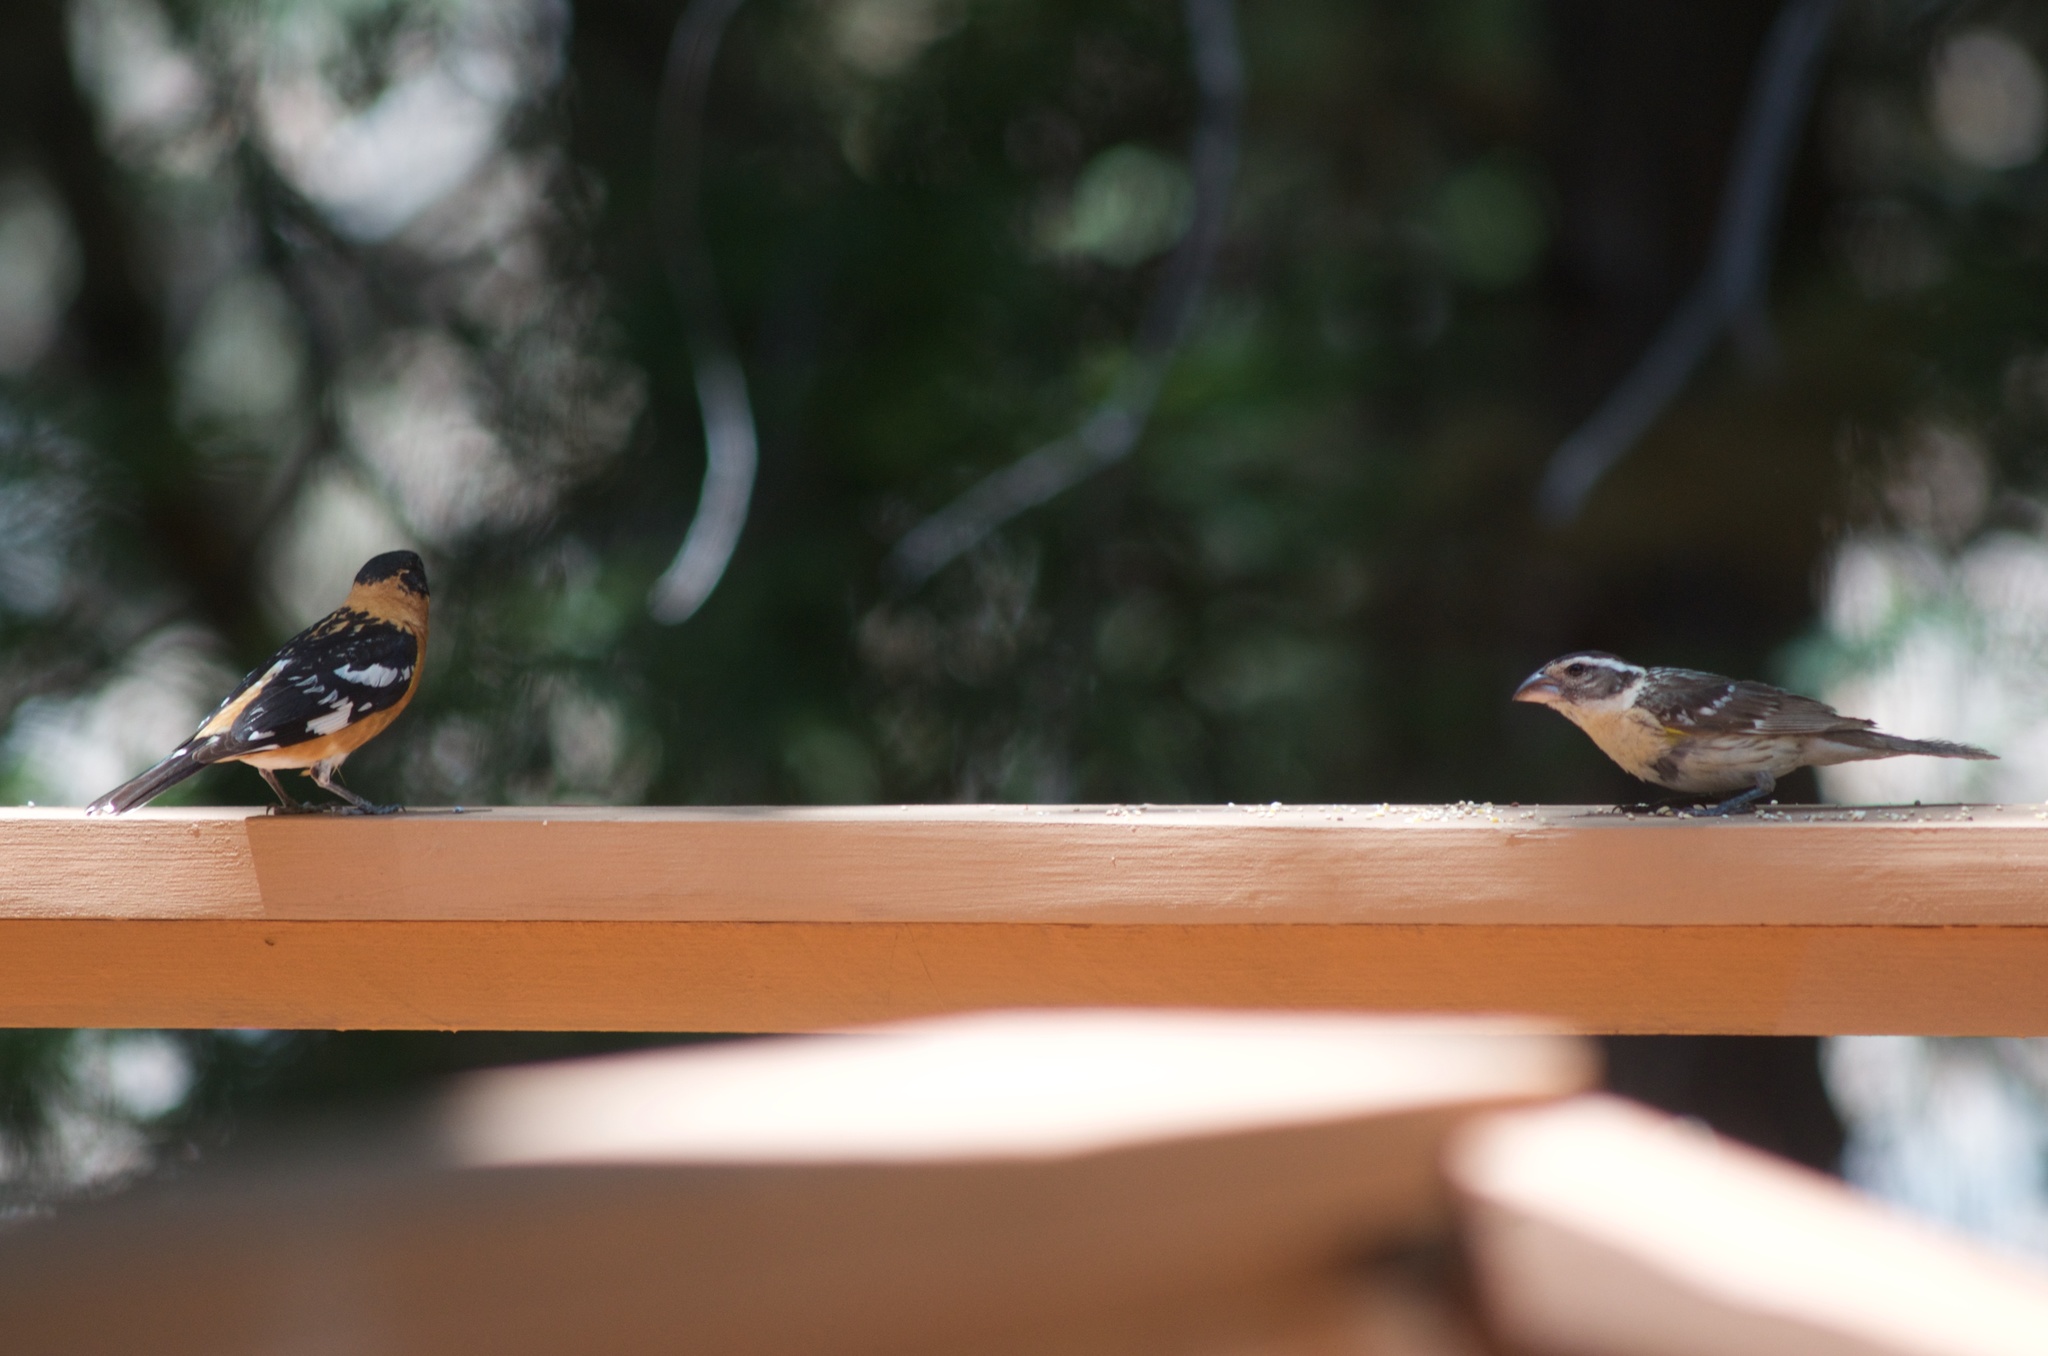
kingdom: Animalia
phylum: Chordata
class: Aves
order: Passeriformes
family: Cardinalidae
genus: Pheucticus
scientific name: Pheucticus melanocephalus
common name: Black-headed grosbeak
